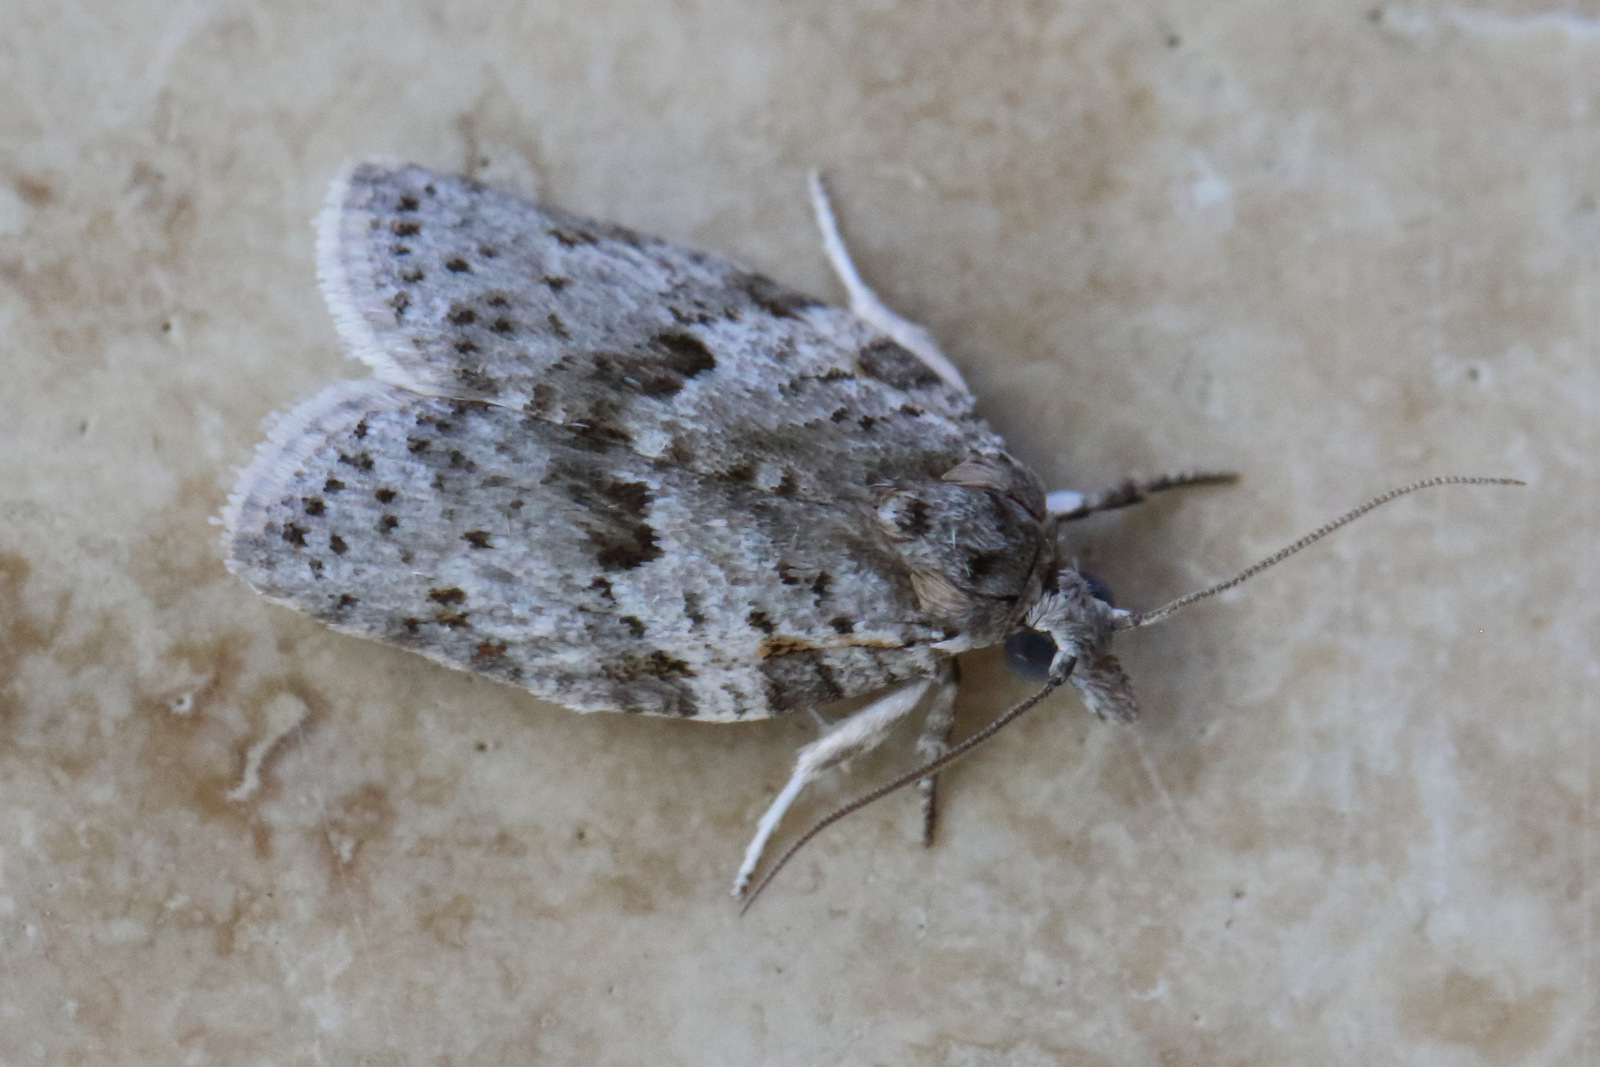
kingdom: Animalia
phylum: Arthropoda
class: Insecta
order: Lepidoptera
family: Tortricidae
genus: Isotenes
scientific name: Isotenes miserana
